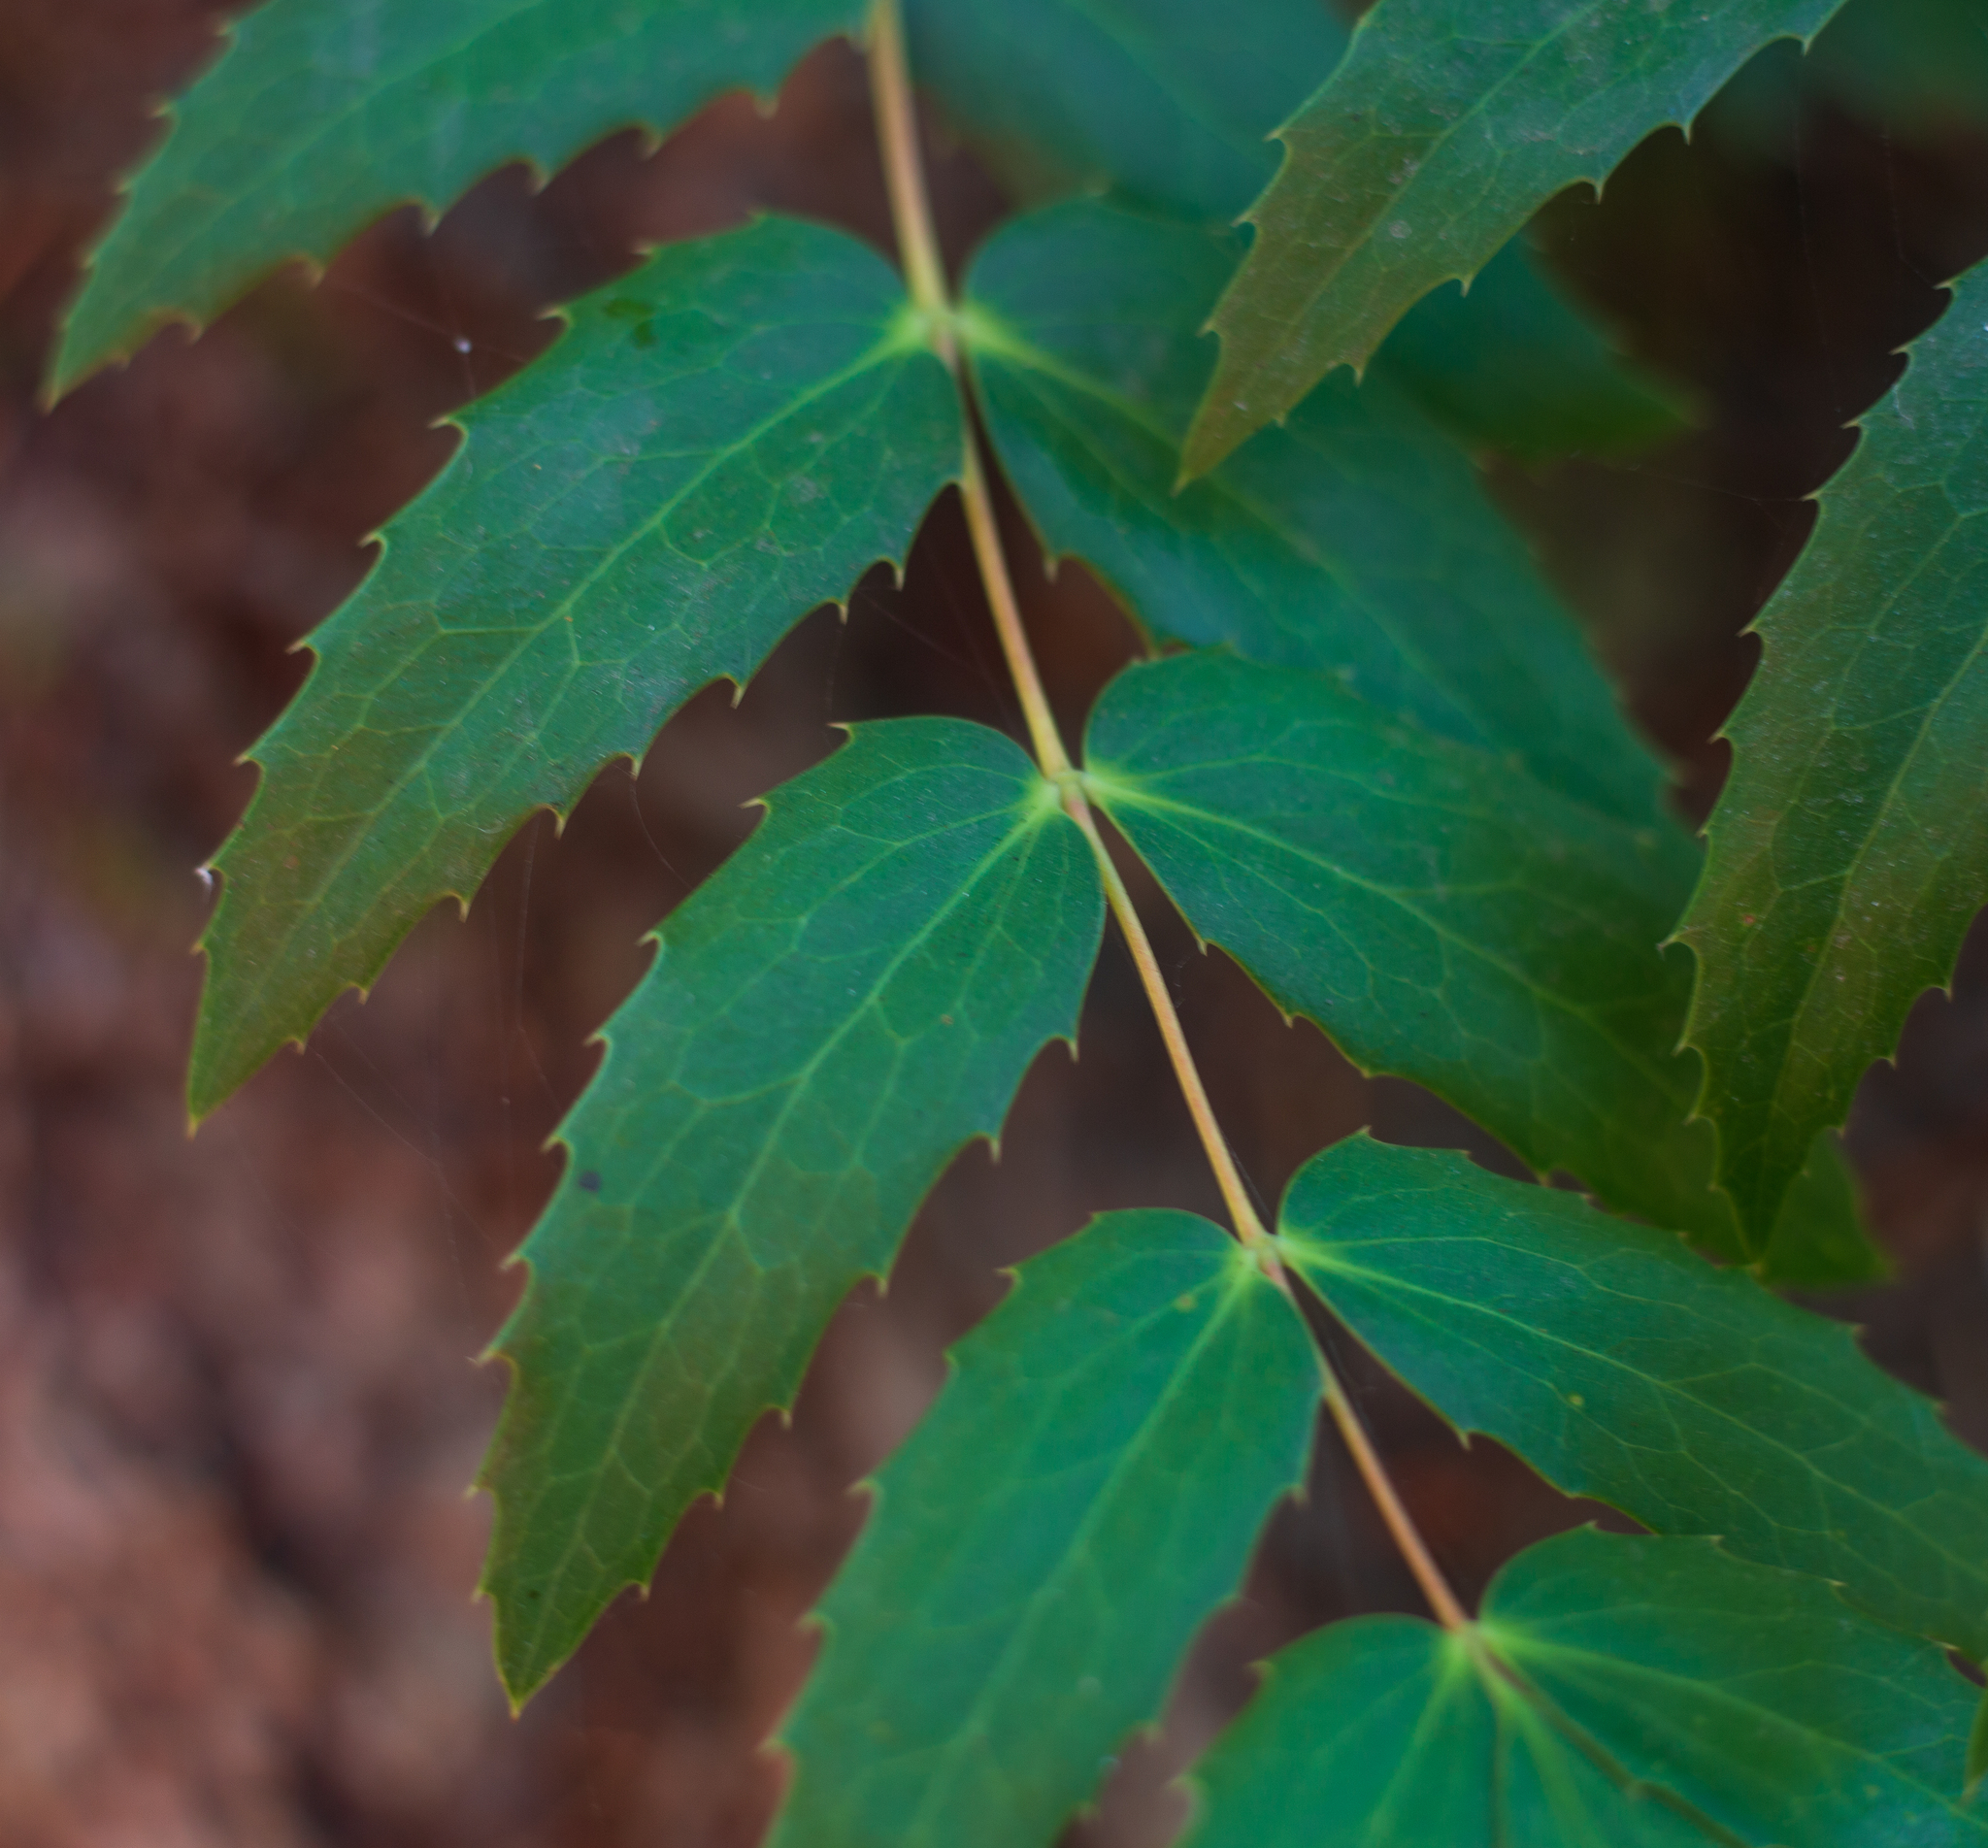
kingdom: Plantae
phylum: Tracheophyta
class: Magnoliopsida
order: Ranunculales
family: Berberidaceae
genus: Mahonia
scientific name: Mahonia nervosa
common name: Cascade oregon-grape
